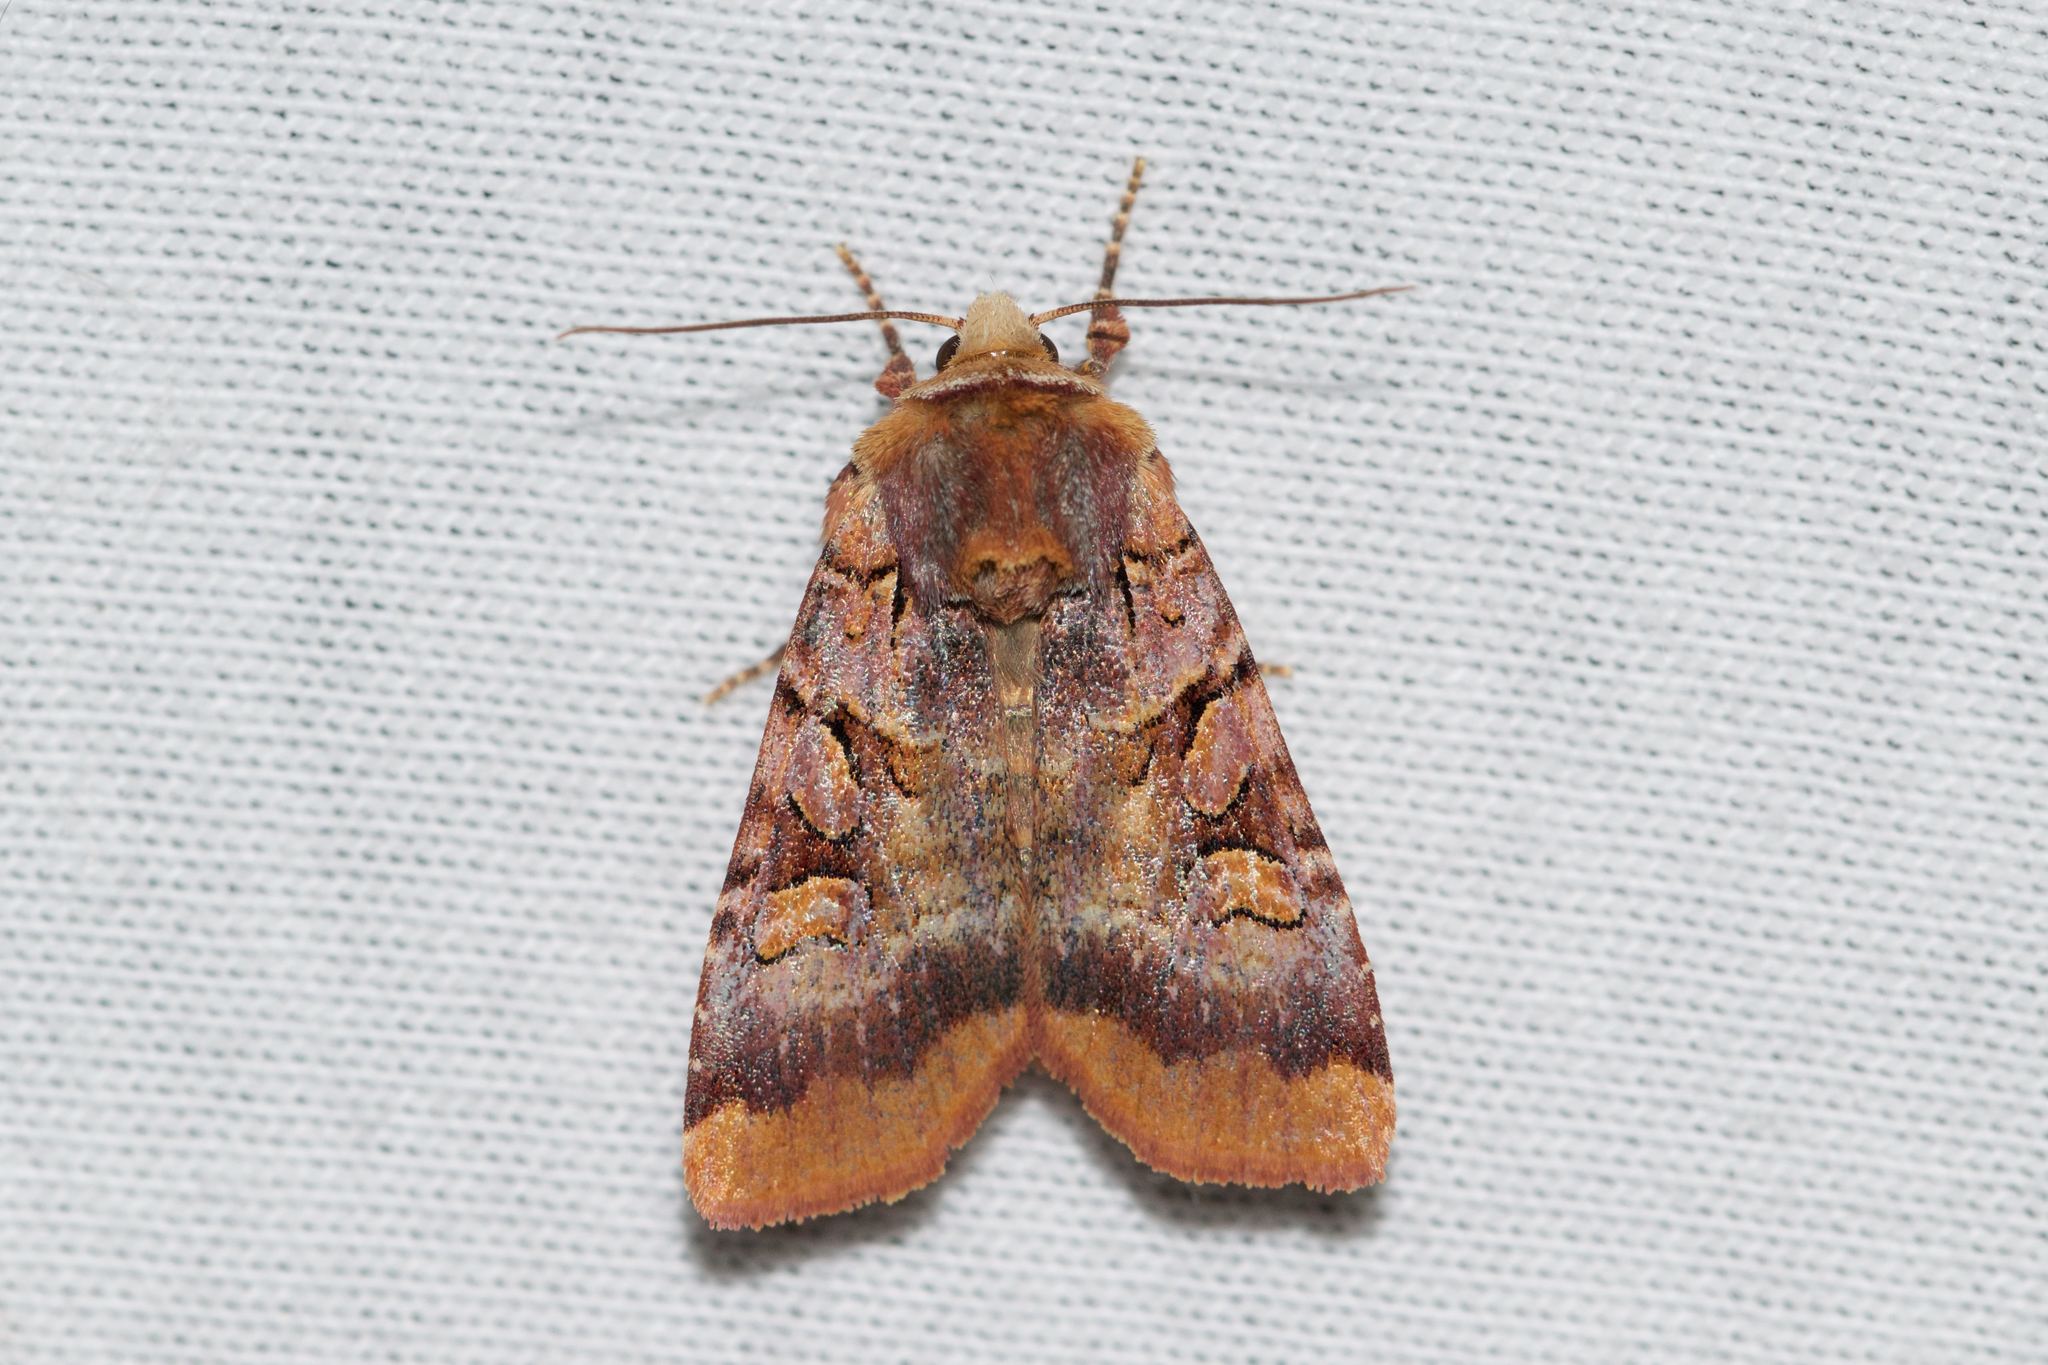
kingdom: Animalia
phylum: Arthropoda
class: Insecta
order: Lepidoptera
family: Noctuidae
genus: Xestia
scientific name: Xestia oblata
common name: Rosy dart
